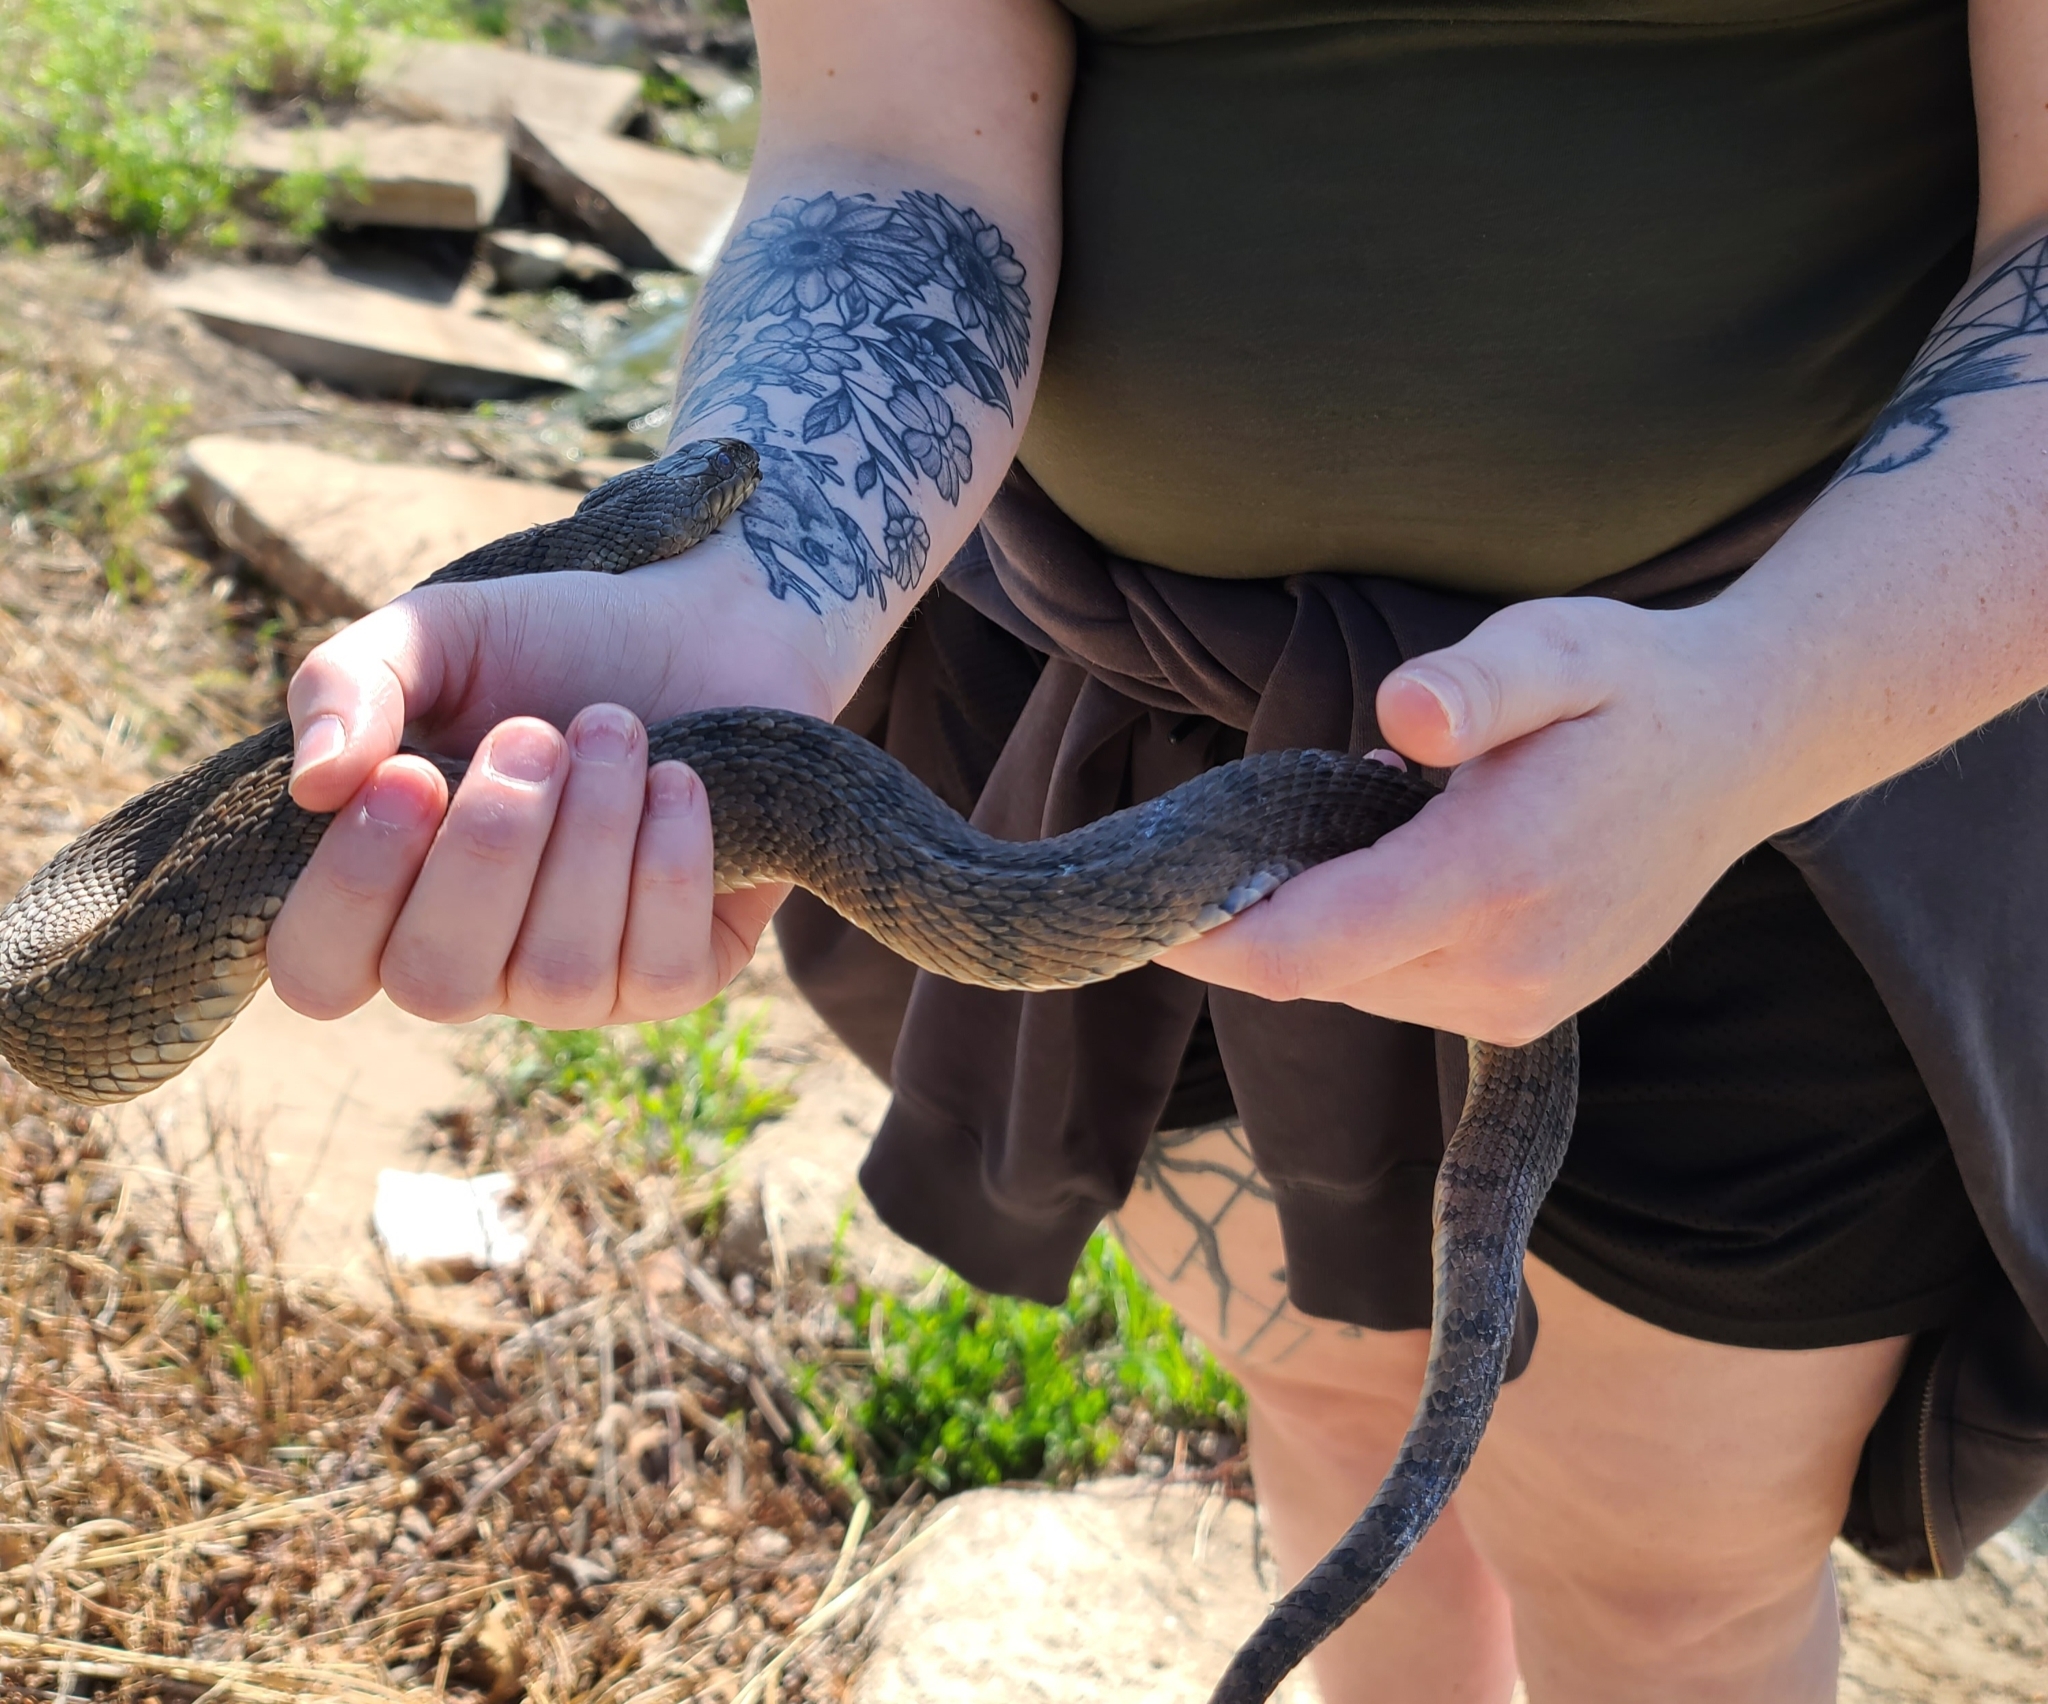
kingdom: Animalia
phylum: Chordata
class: Squamata
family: Colubridae
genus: Nerodia
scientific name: Nerodia rhombifer
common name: Diamondback water snake
